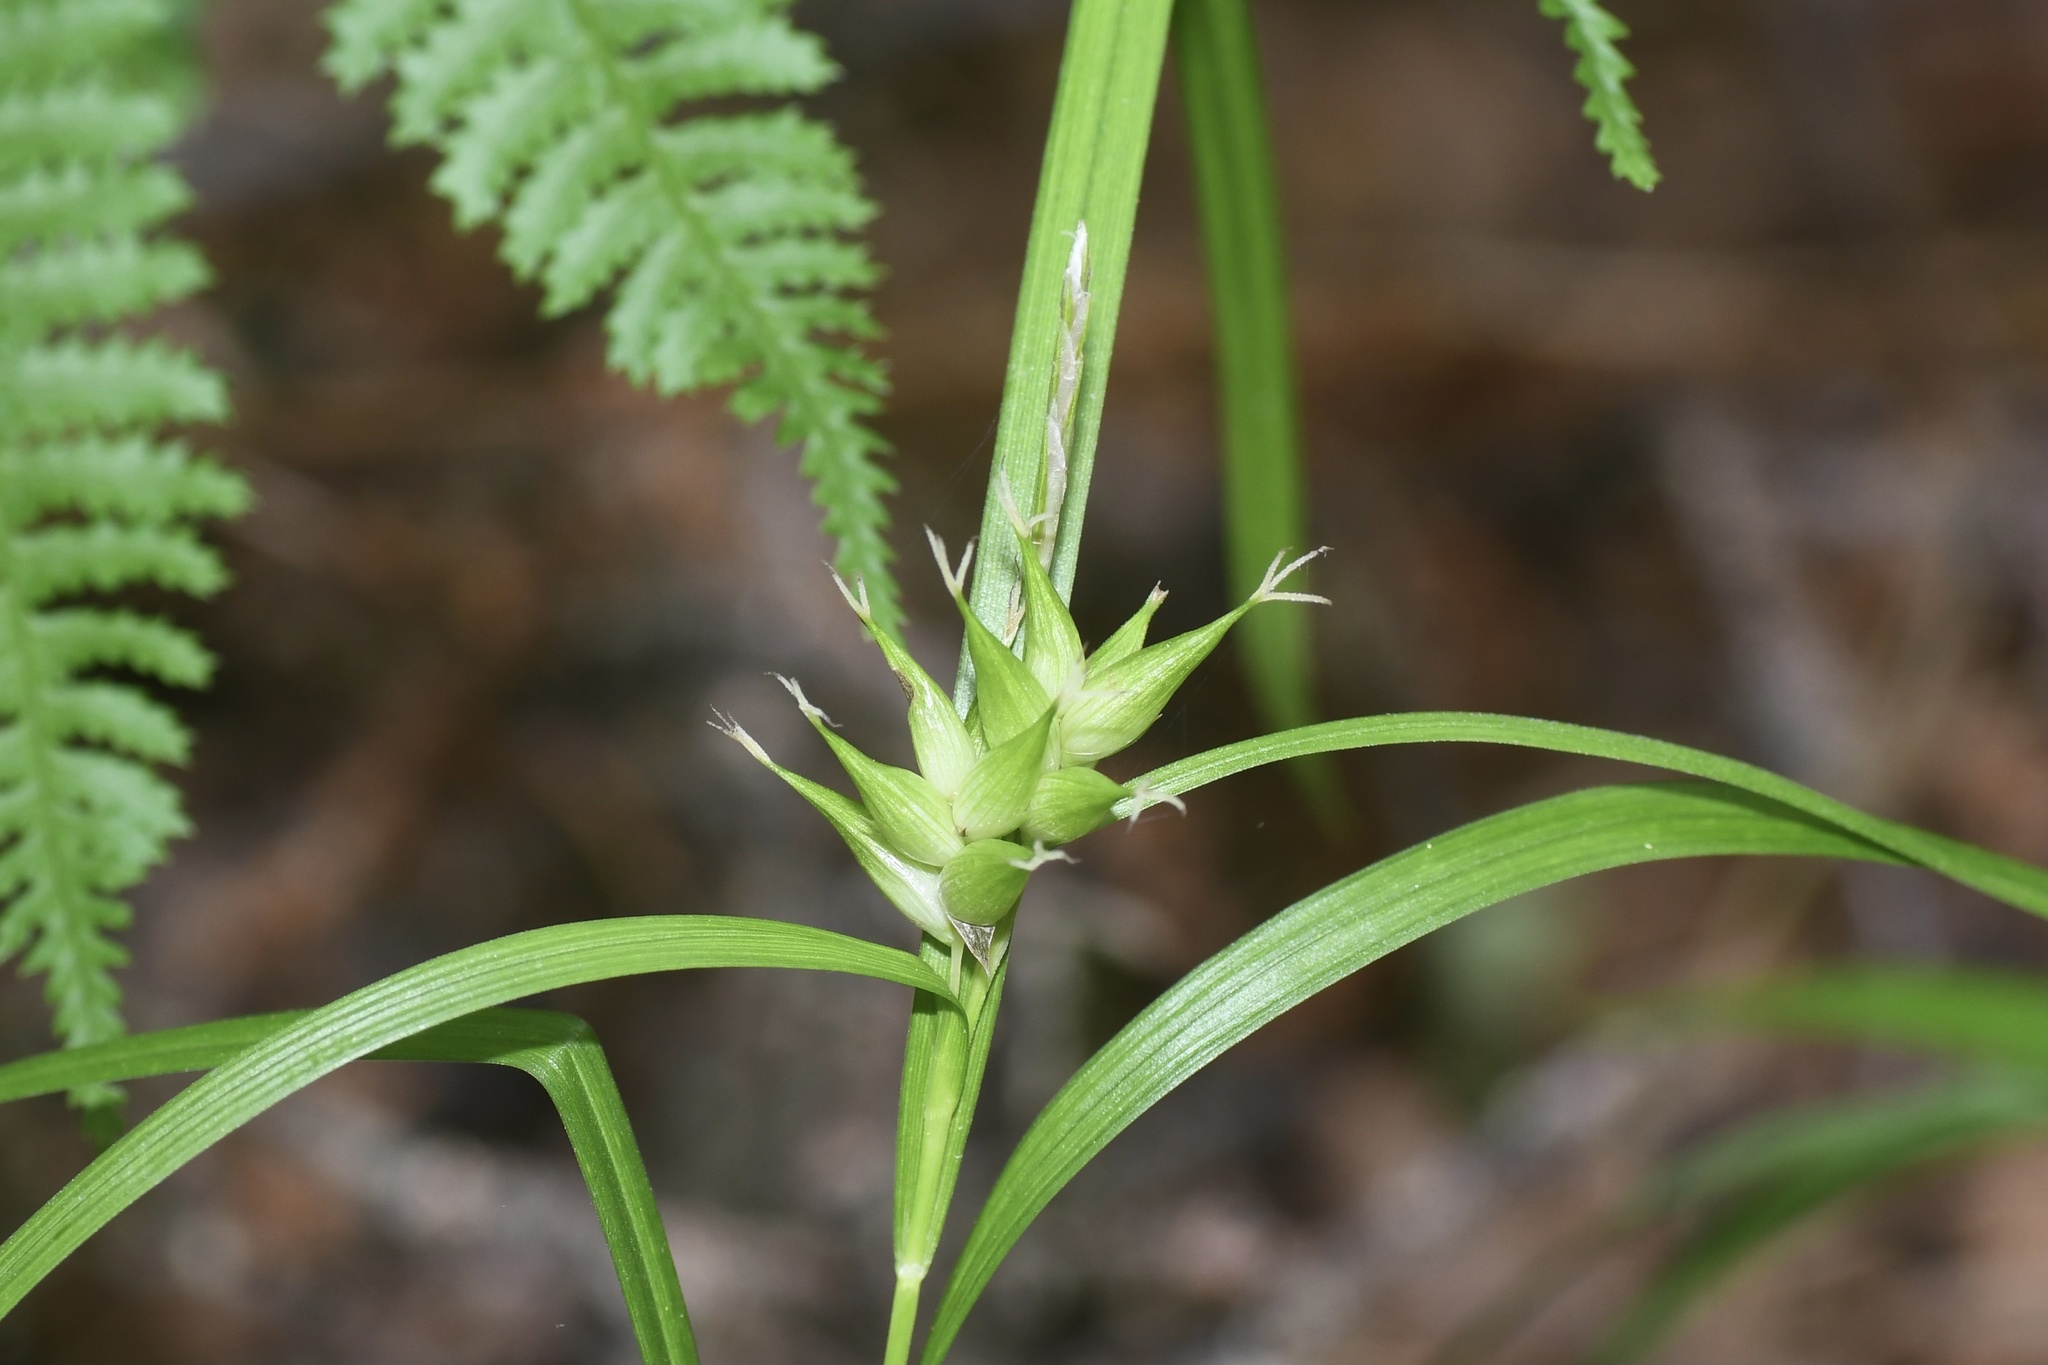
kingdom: Plantae
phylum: Tracheophyta
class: Liliopsida
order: Poales
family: Cyperaceae
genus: Carex
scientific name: Carex intumescens
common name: Greater bladder sedge
